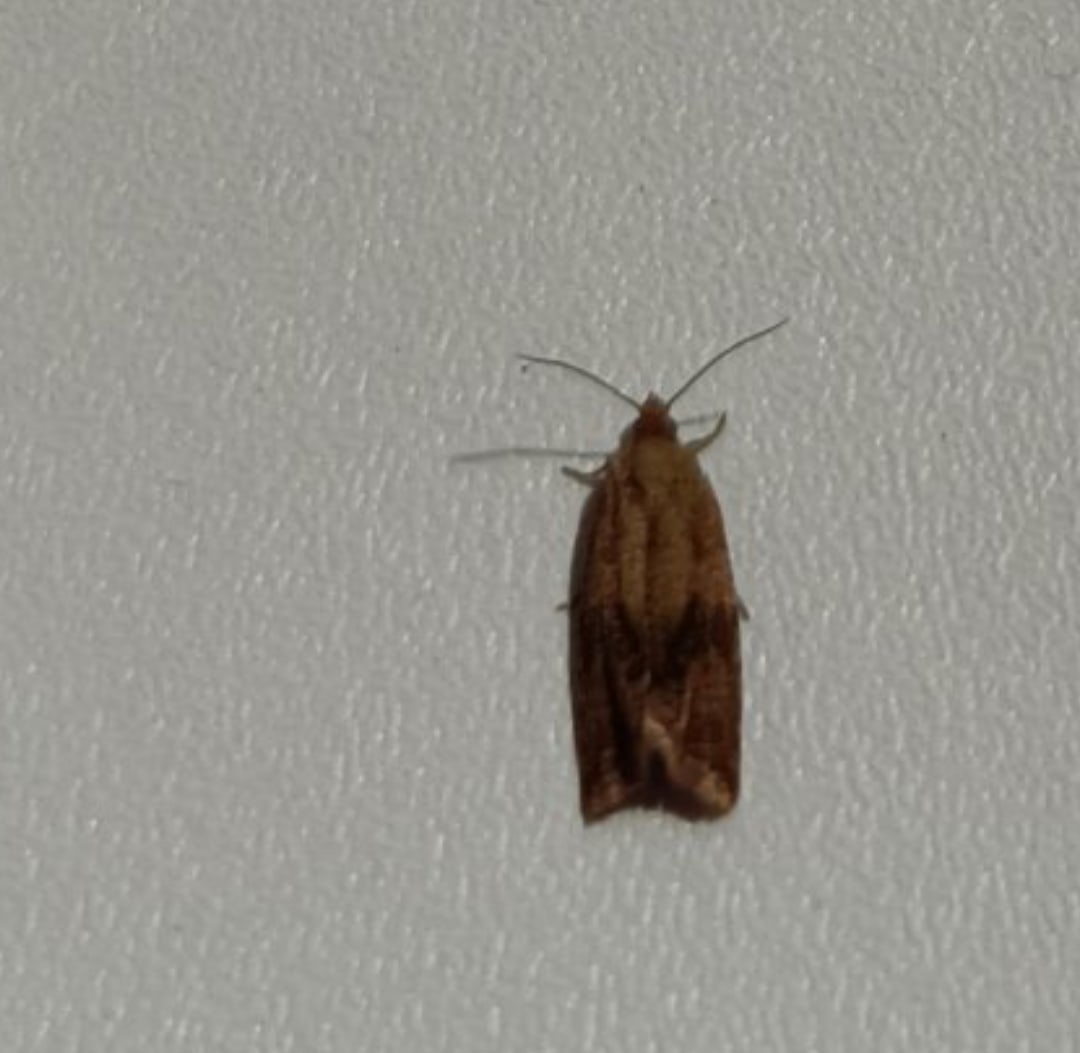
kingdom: Animalia
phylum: Arthropoda
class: Insecta
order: Lepidoptera
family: Tortricidae
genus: Celypha
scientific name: Celypha striana
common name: Barred marble
